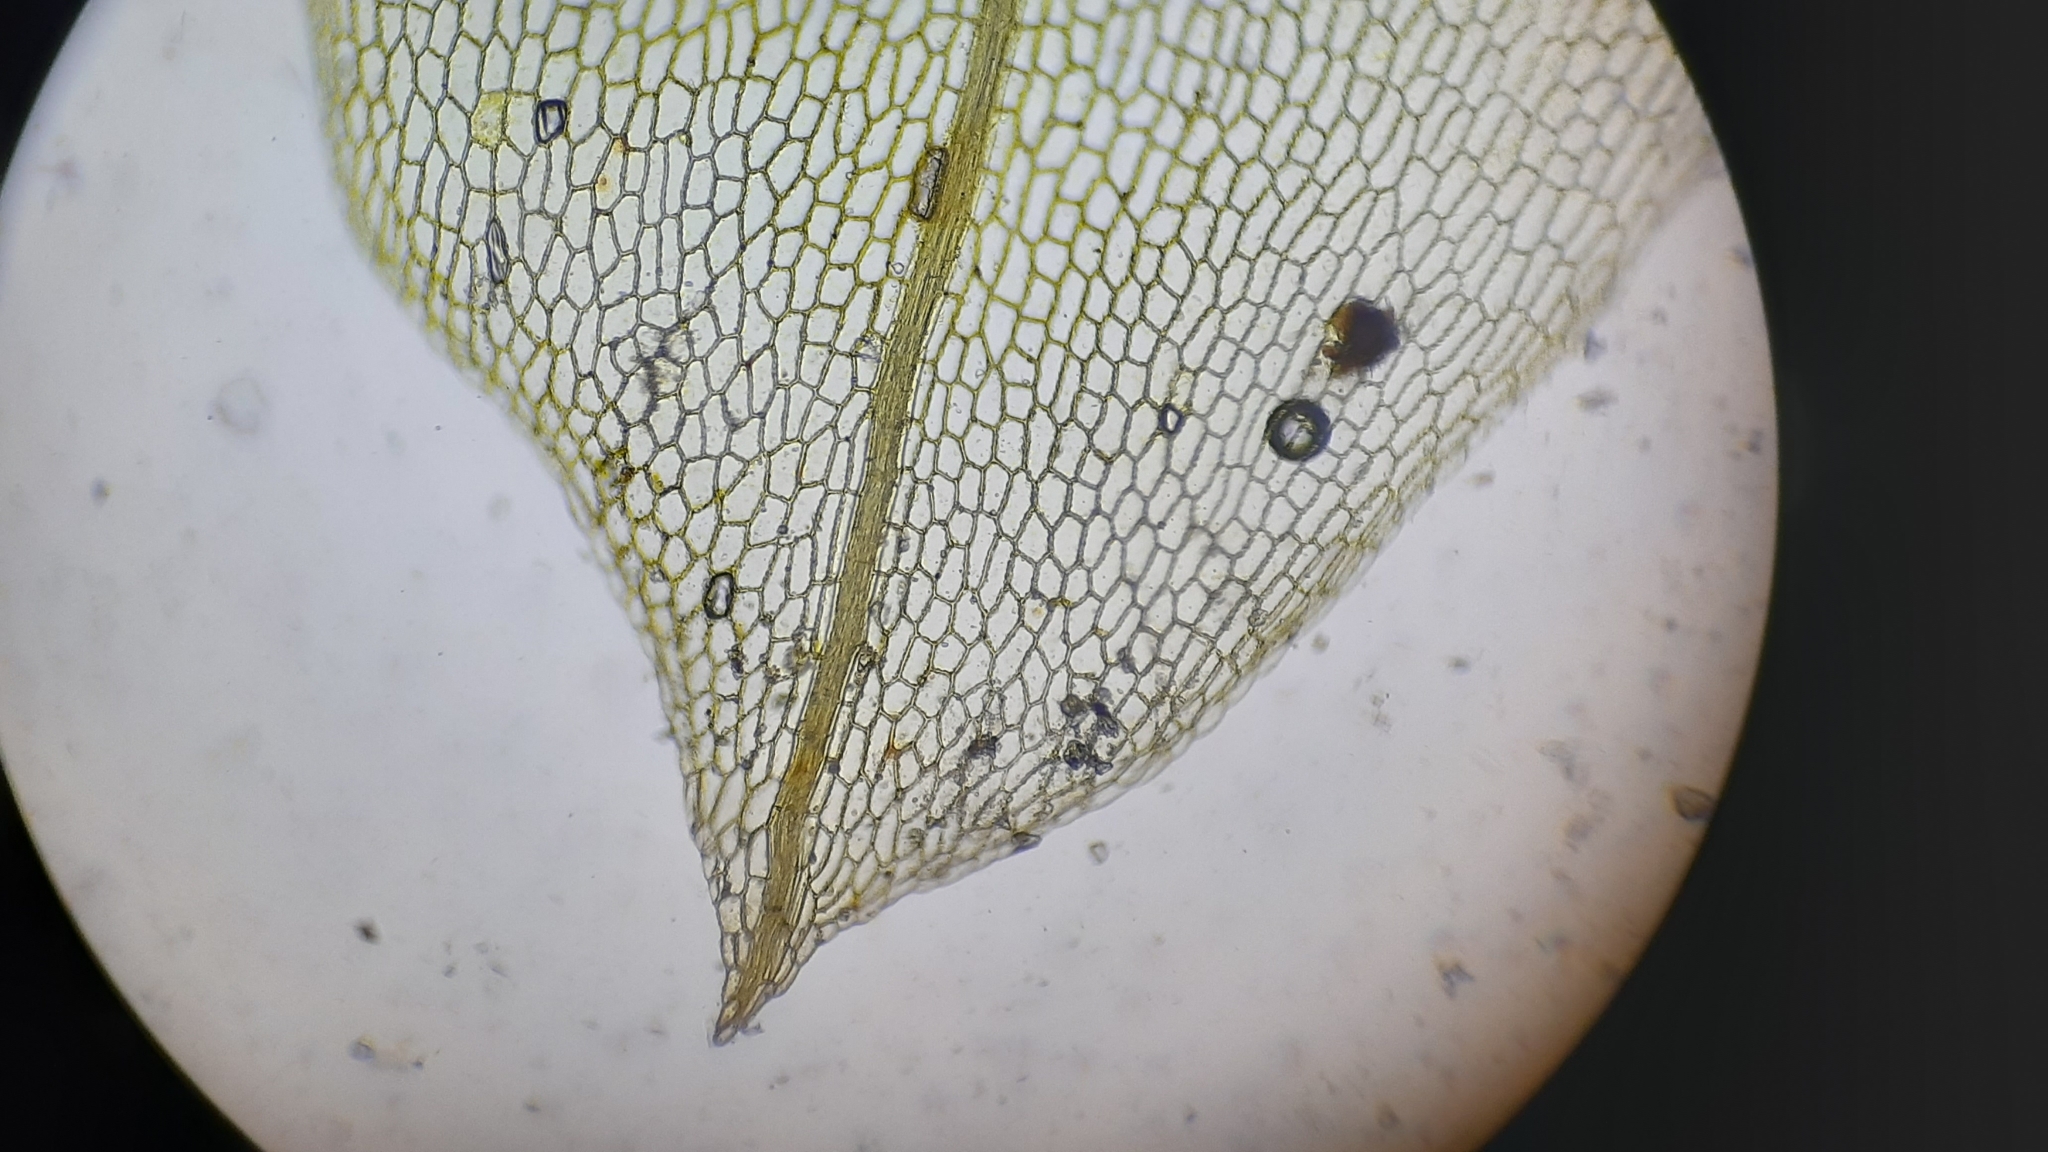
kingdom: Plantae
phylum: Bryophyta
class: Bryopsida
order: Funariales
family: Funariaceae
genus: Funaria
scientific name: Funaria hygrometrica
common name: Common cord moss
